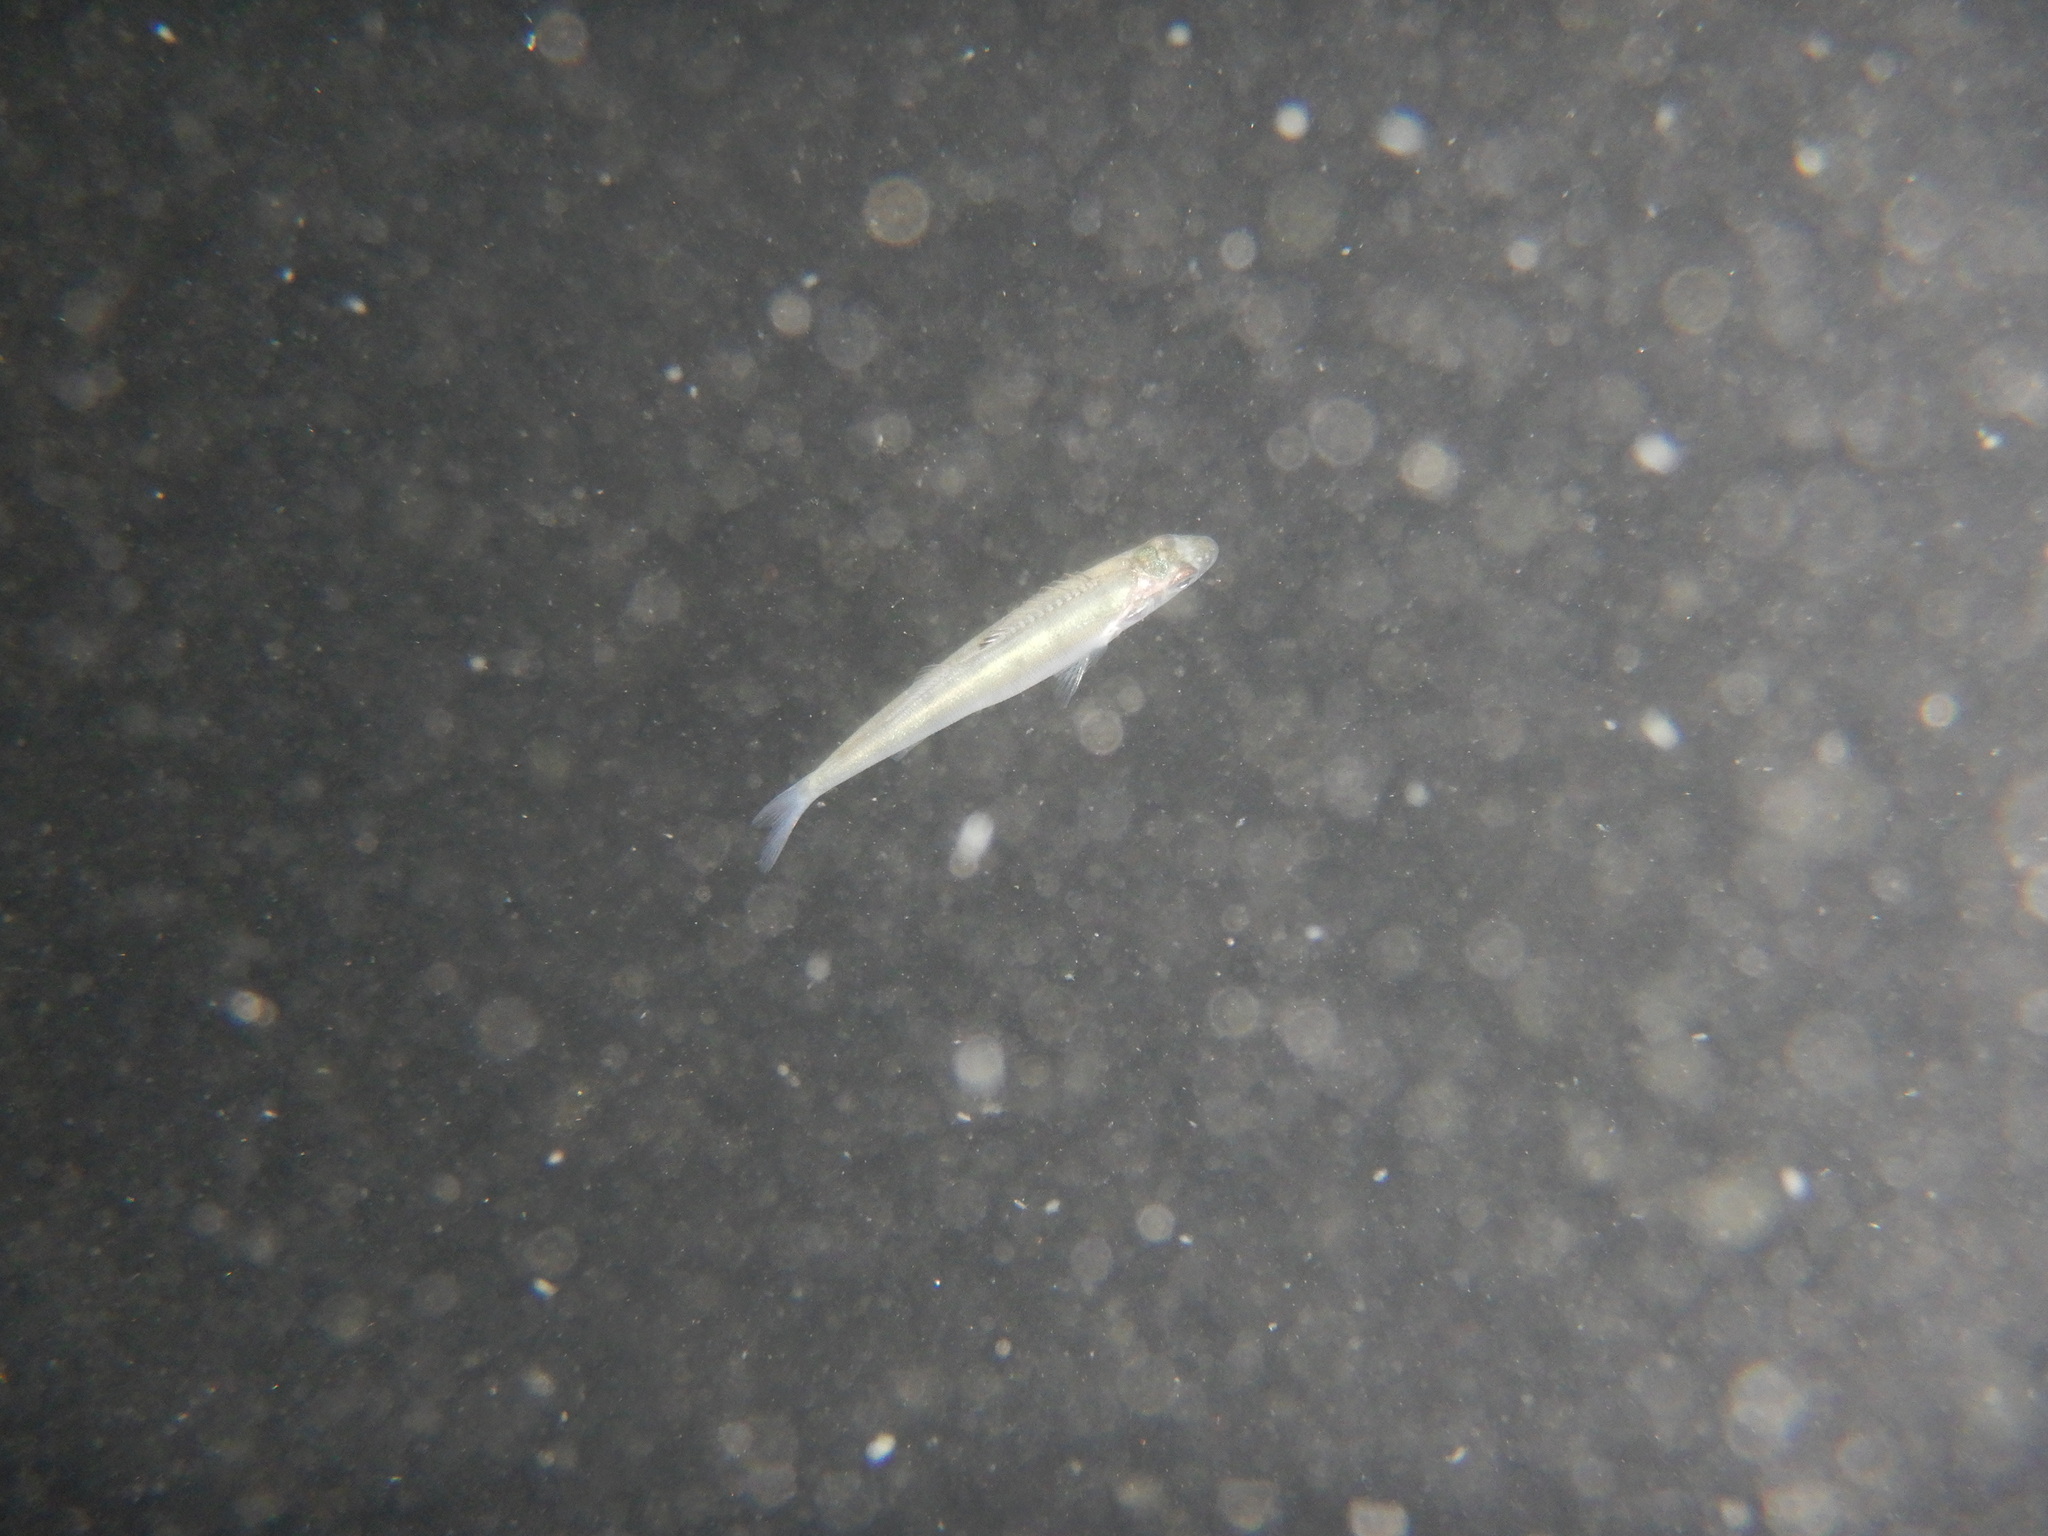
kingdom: Animalia
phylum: Chordata
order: Perciformes
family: Percidae
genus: Perca
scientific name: Perca fluviatilis
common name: Perch
